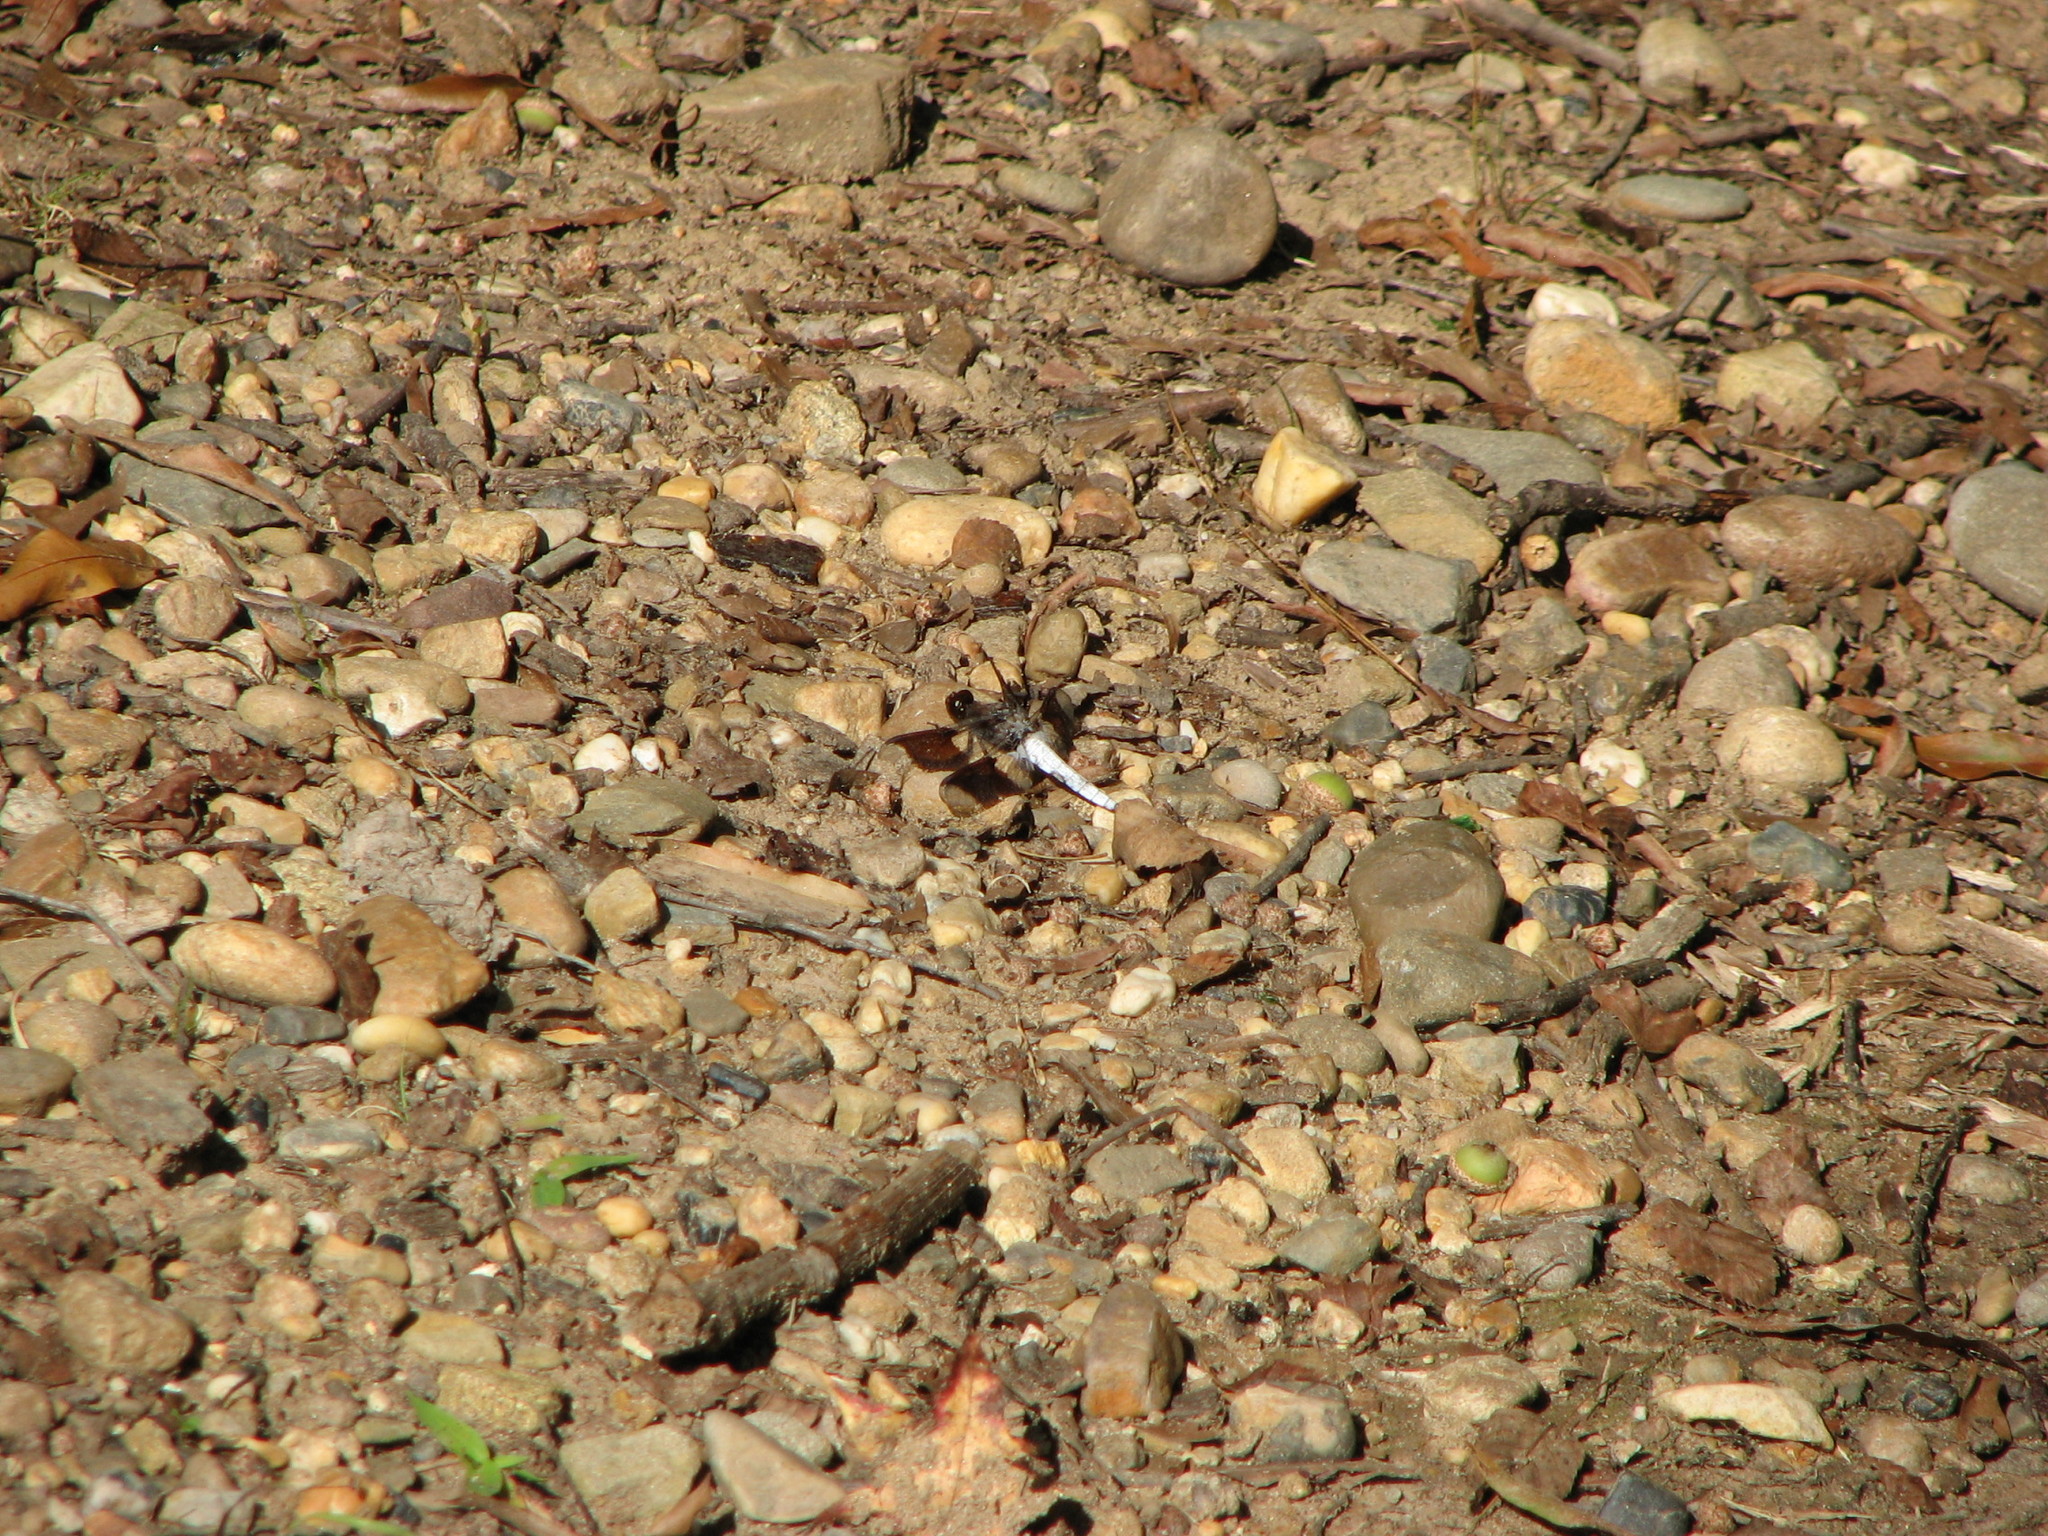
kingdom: Animalia
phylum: Arthropoda
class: Insecta
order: Odonata
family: Libellulidae
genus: Plathemis
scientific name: Plathemis lydia
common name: Common whitetail
